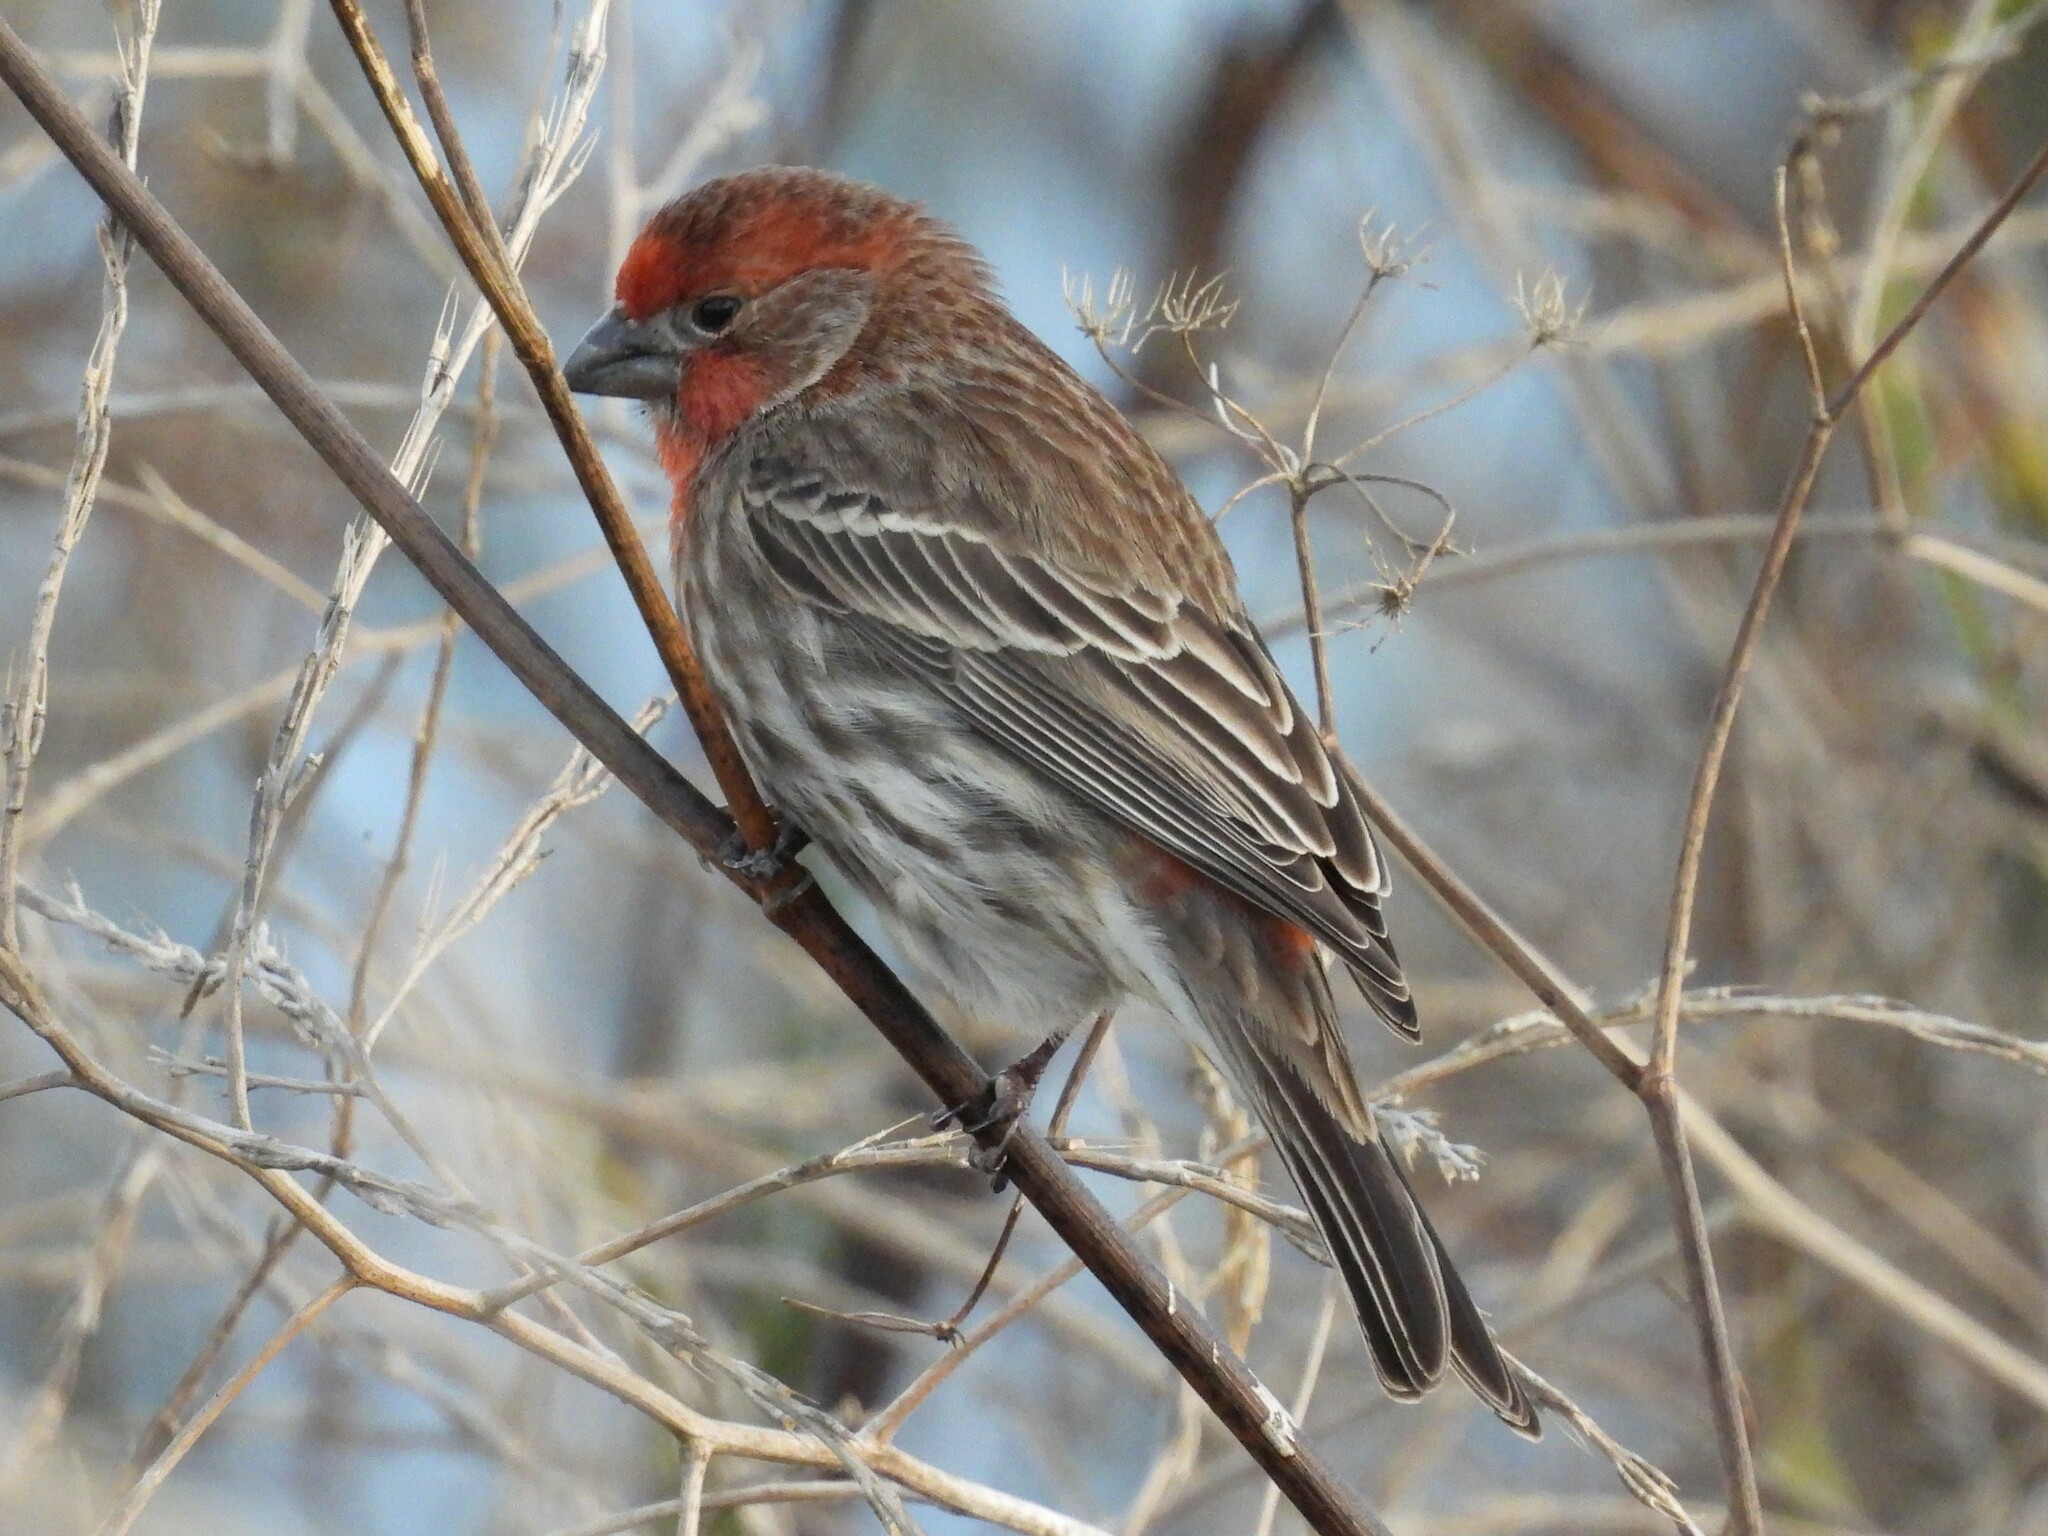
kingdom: Animalia
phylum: Chordata
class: Aves
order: Passeriformes
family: Fringillidae
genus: Haemorhous
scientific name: Haemorhous mexicanus
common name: House finch
